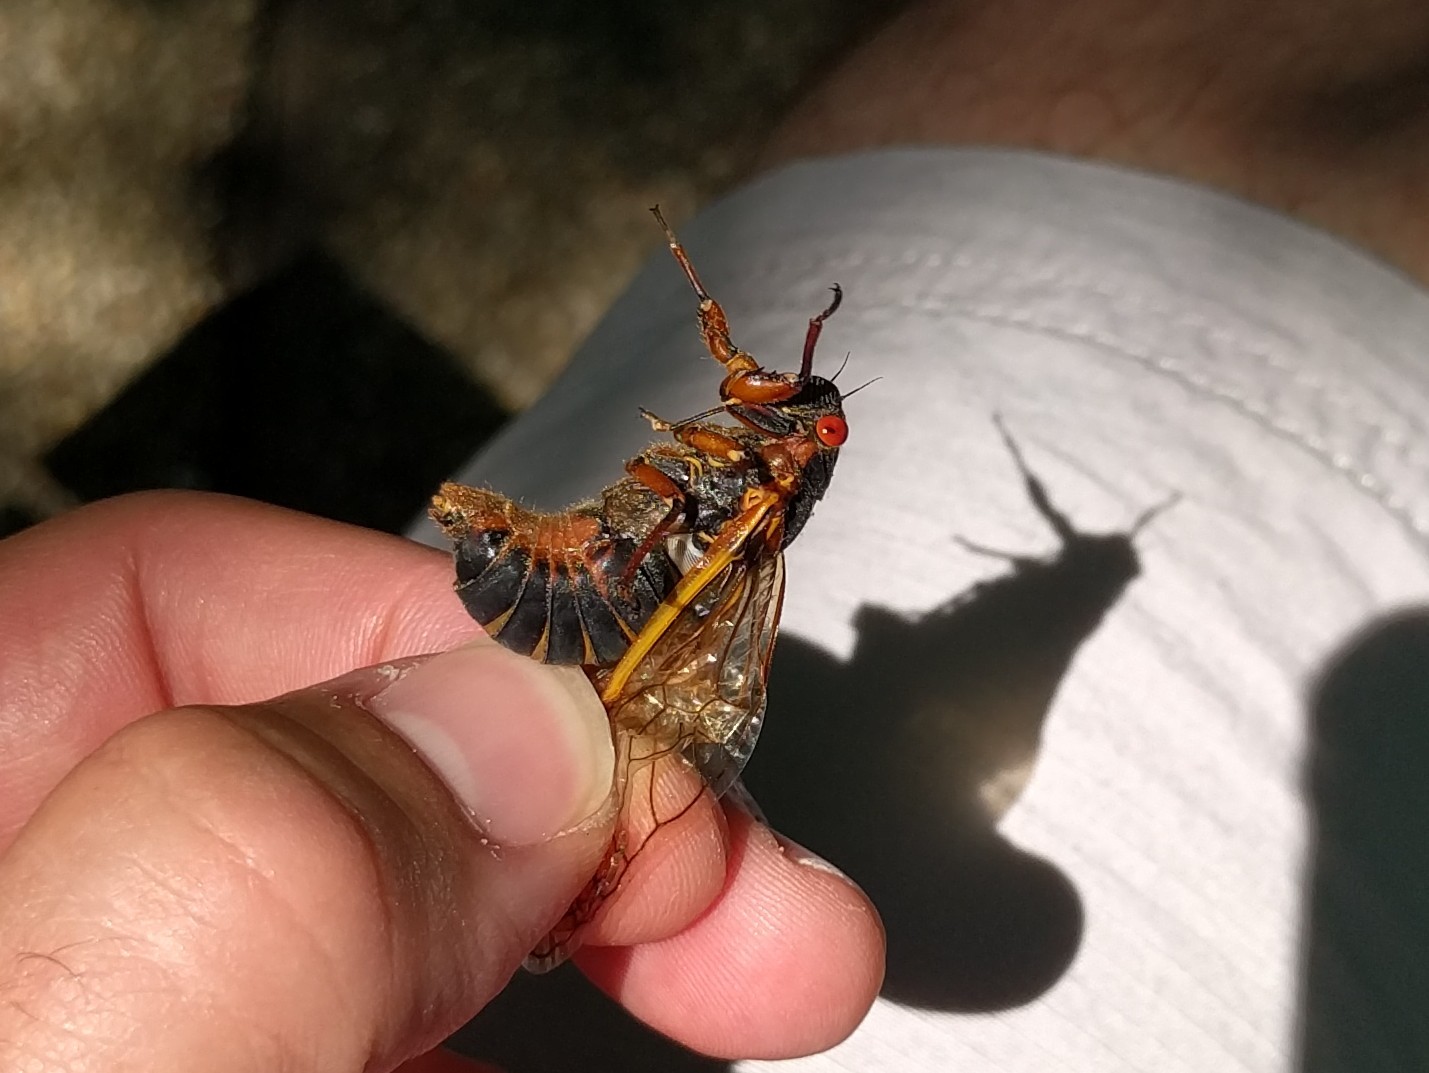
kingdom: Animalia
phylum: Arthropoda
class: Insecta
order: Hemiptera
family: Cicadidae
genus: Magicicada
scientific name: Magicicada septendecim
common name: Periodical cicada
